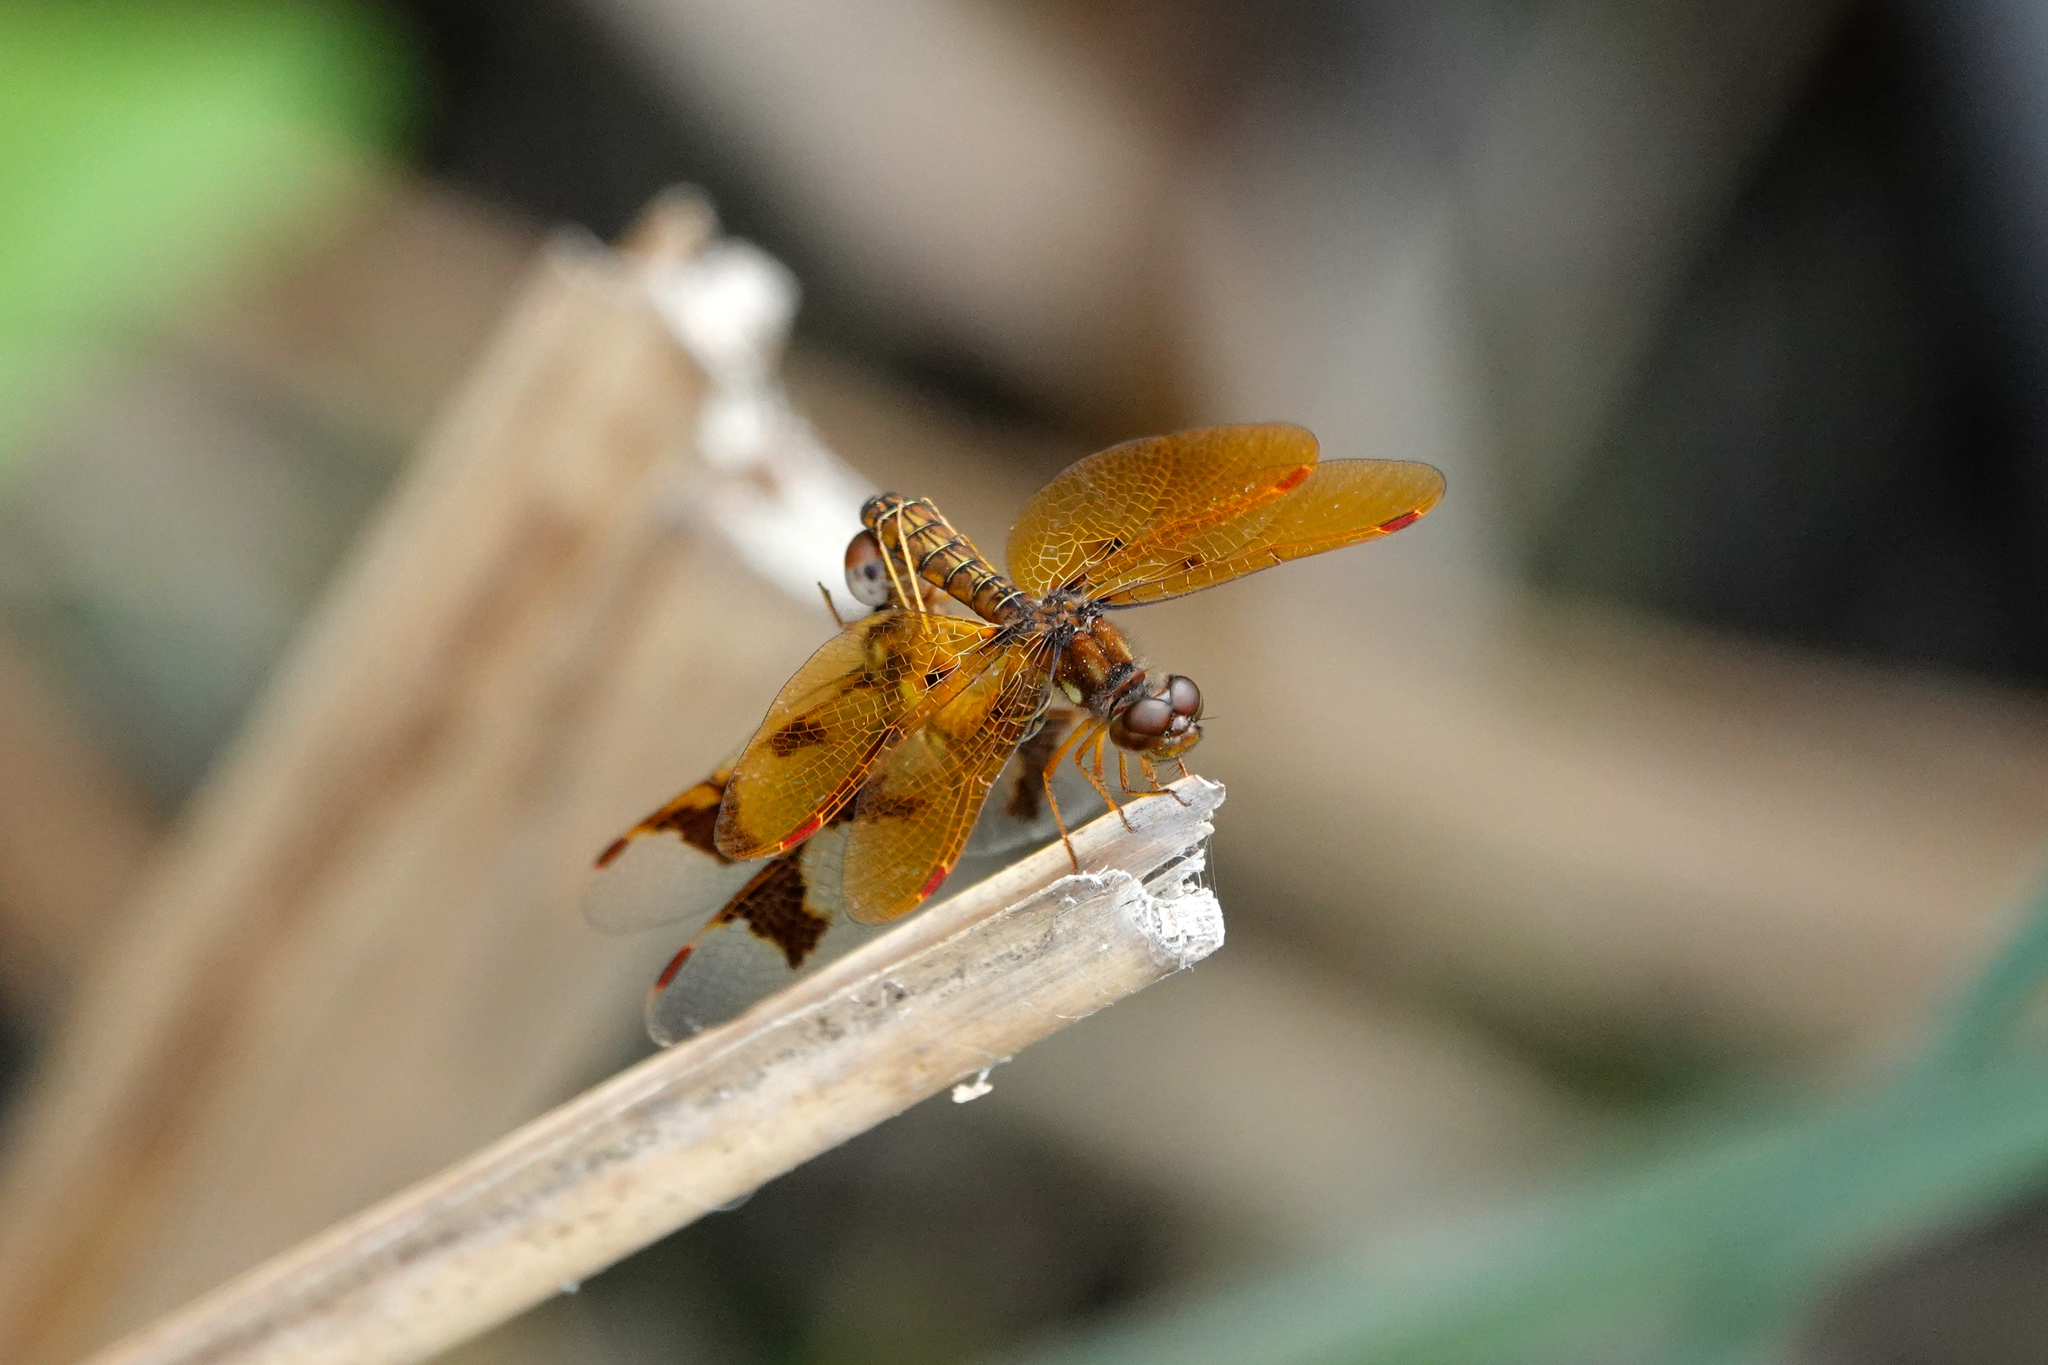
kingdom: Animalia
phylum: Arthropoda
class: Insecta
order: Odonata
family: Libellulidae
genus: Perithemis
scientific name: Perithemis tenera
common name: Eastern amberwing
